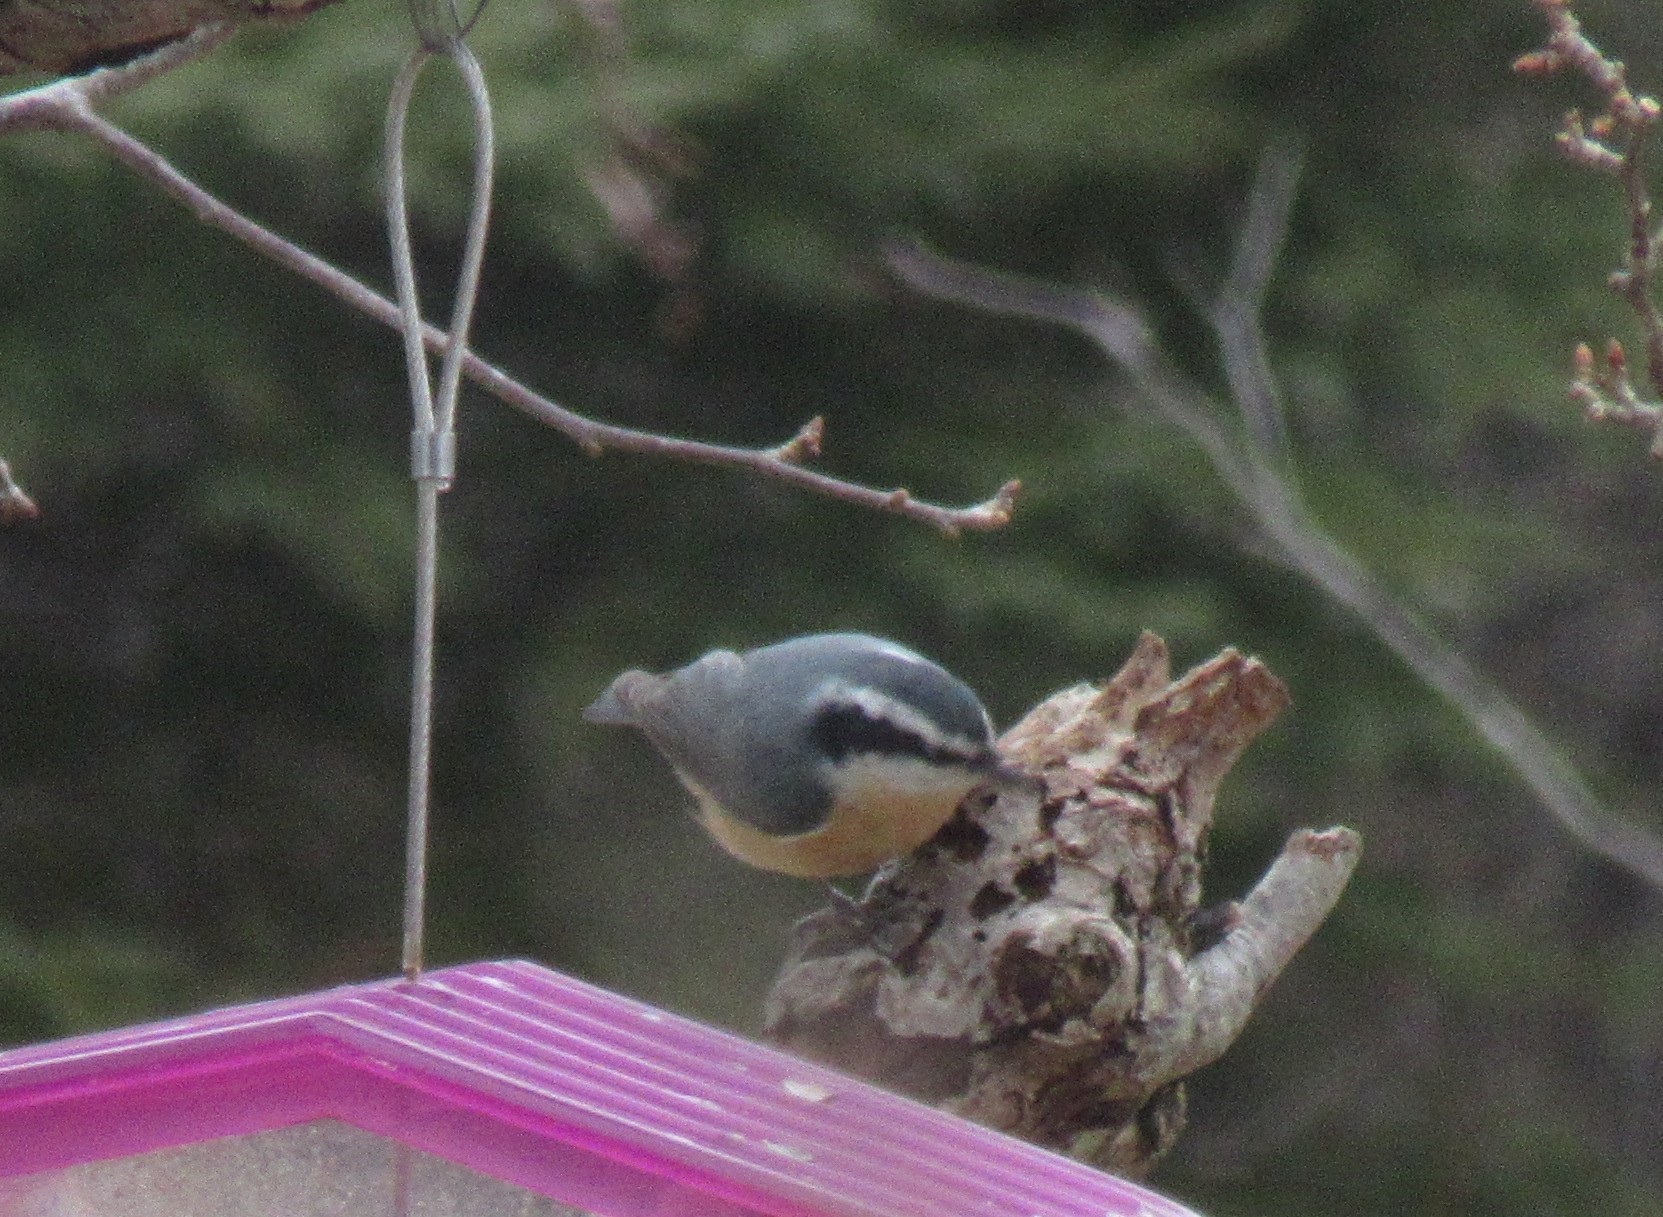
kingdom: Animalia
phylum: Chordata
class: Aves
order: Passeriformes
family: Sittidae
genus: Sitta
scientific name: Sitta canadensis
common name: Red-breasted nuthatch
